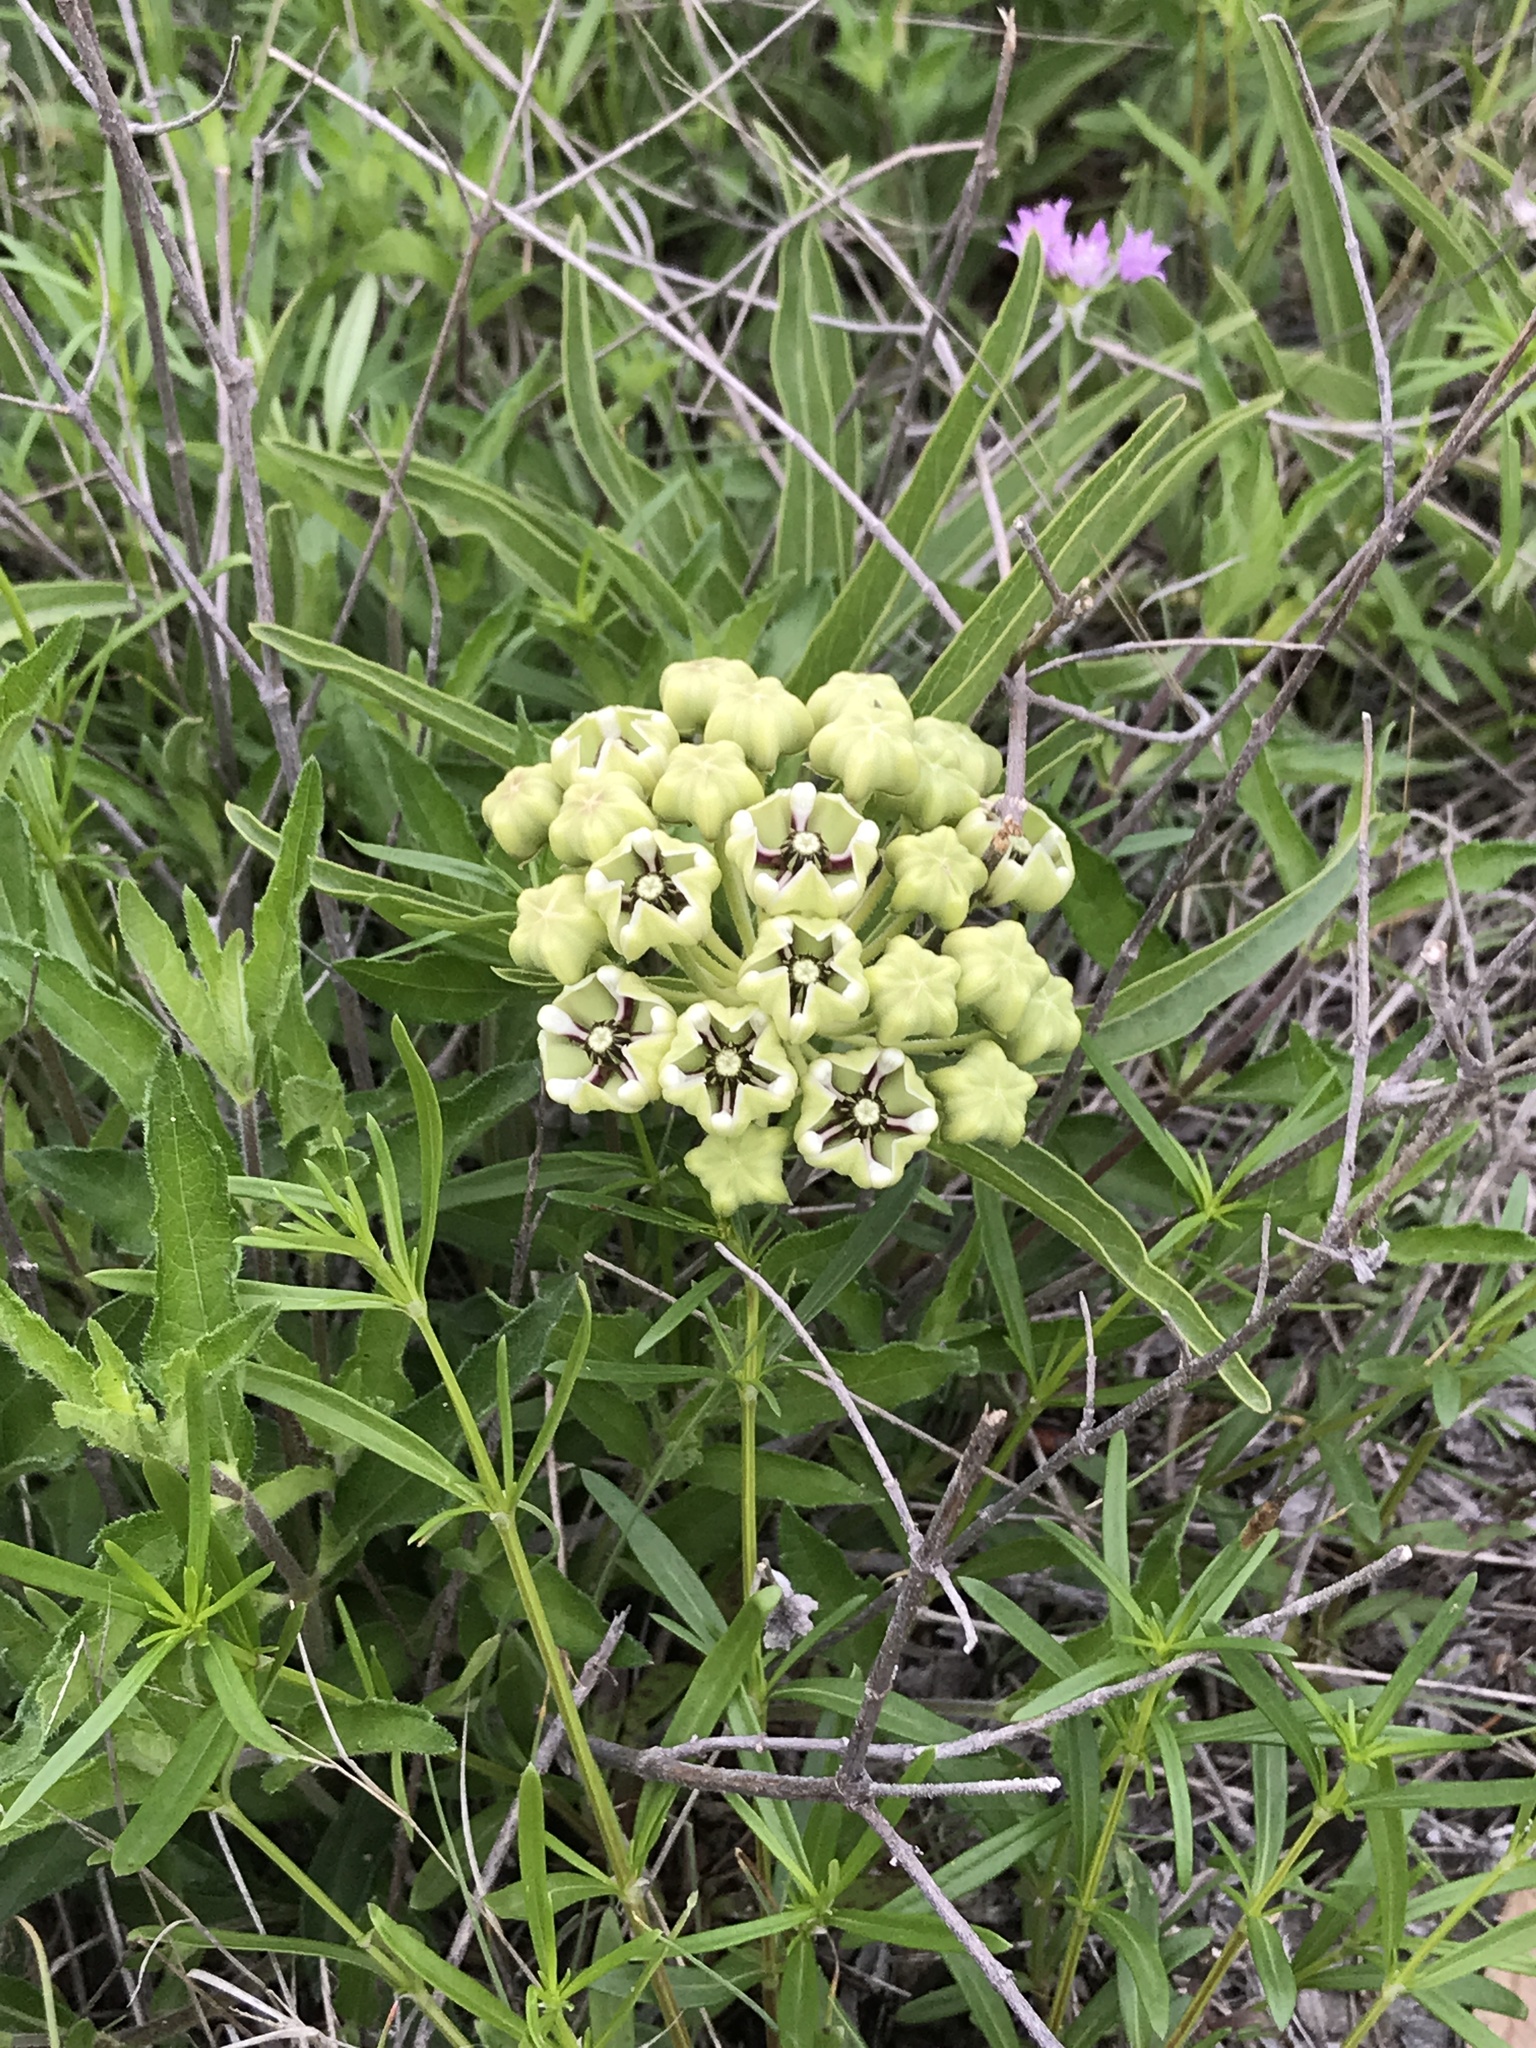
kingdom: Plantae
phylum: Tracheophyta
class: Magnoliopsida
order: Gentianales
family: Apocynaceae
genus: Asclepias
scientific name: Asclepias asperula
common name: Antelope horns
